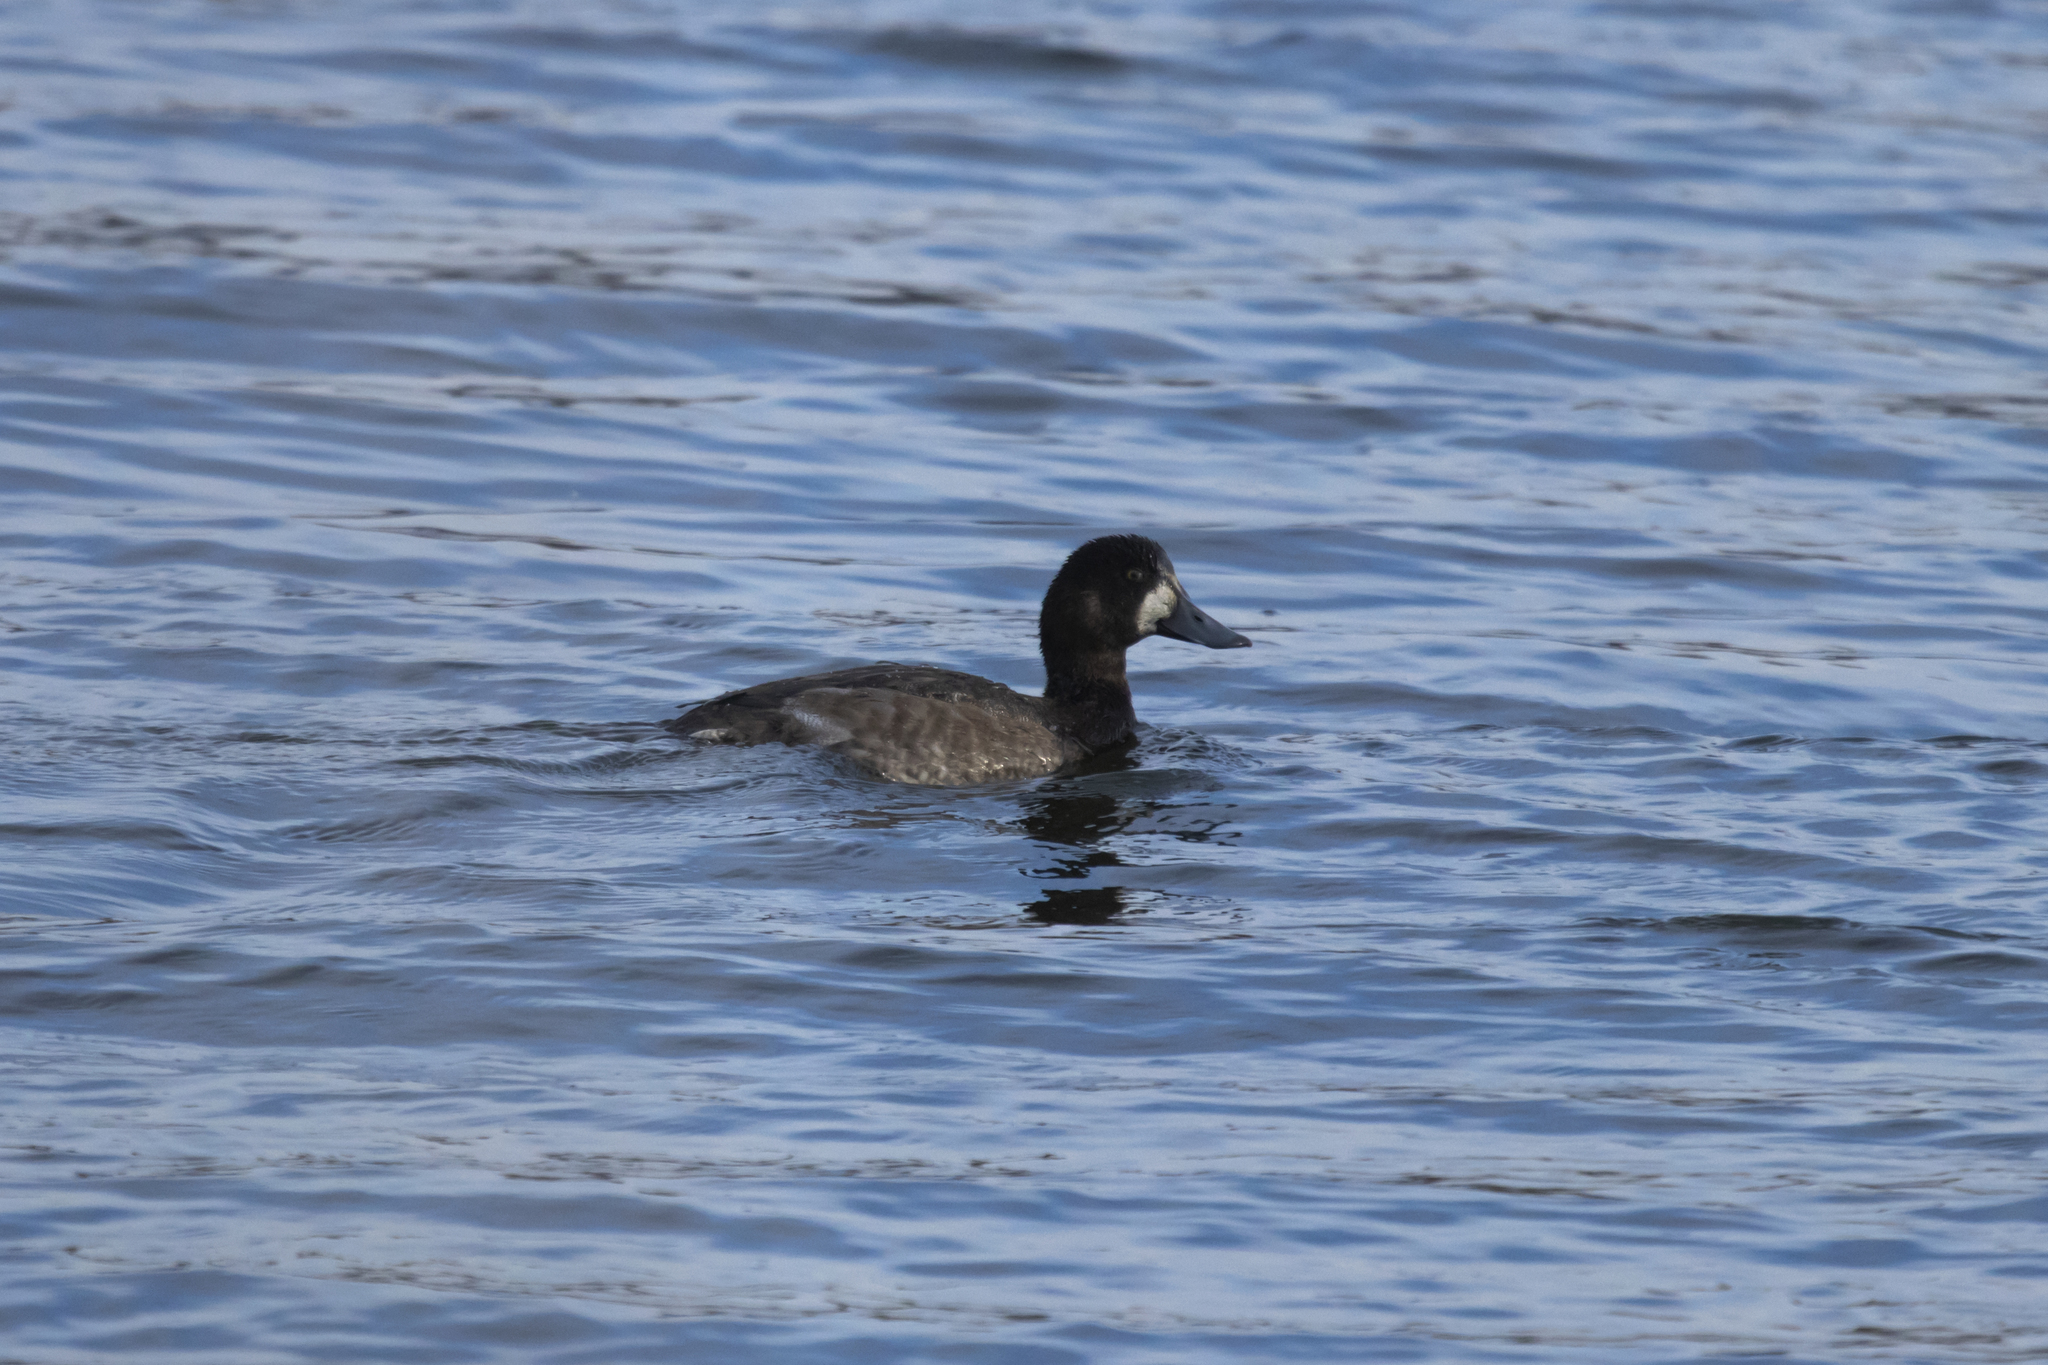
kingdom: Animalia
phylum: Chordata
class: Aves
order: Anseriformes
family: Anatidae
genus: Aythya
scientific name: Aythya marila
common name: Greater scaup
